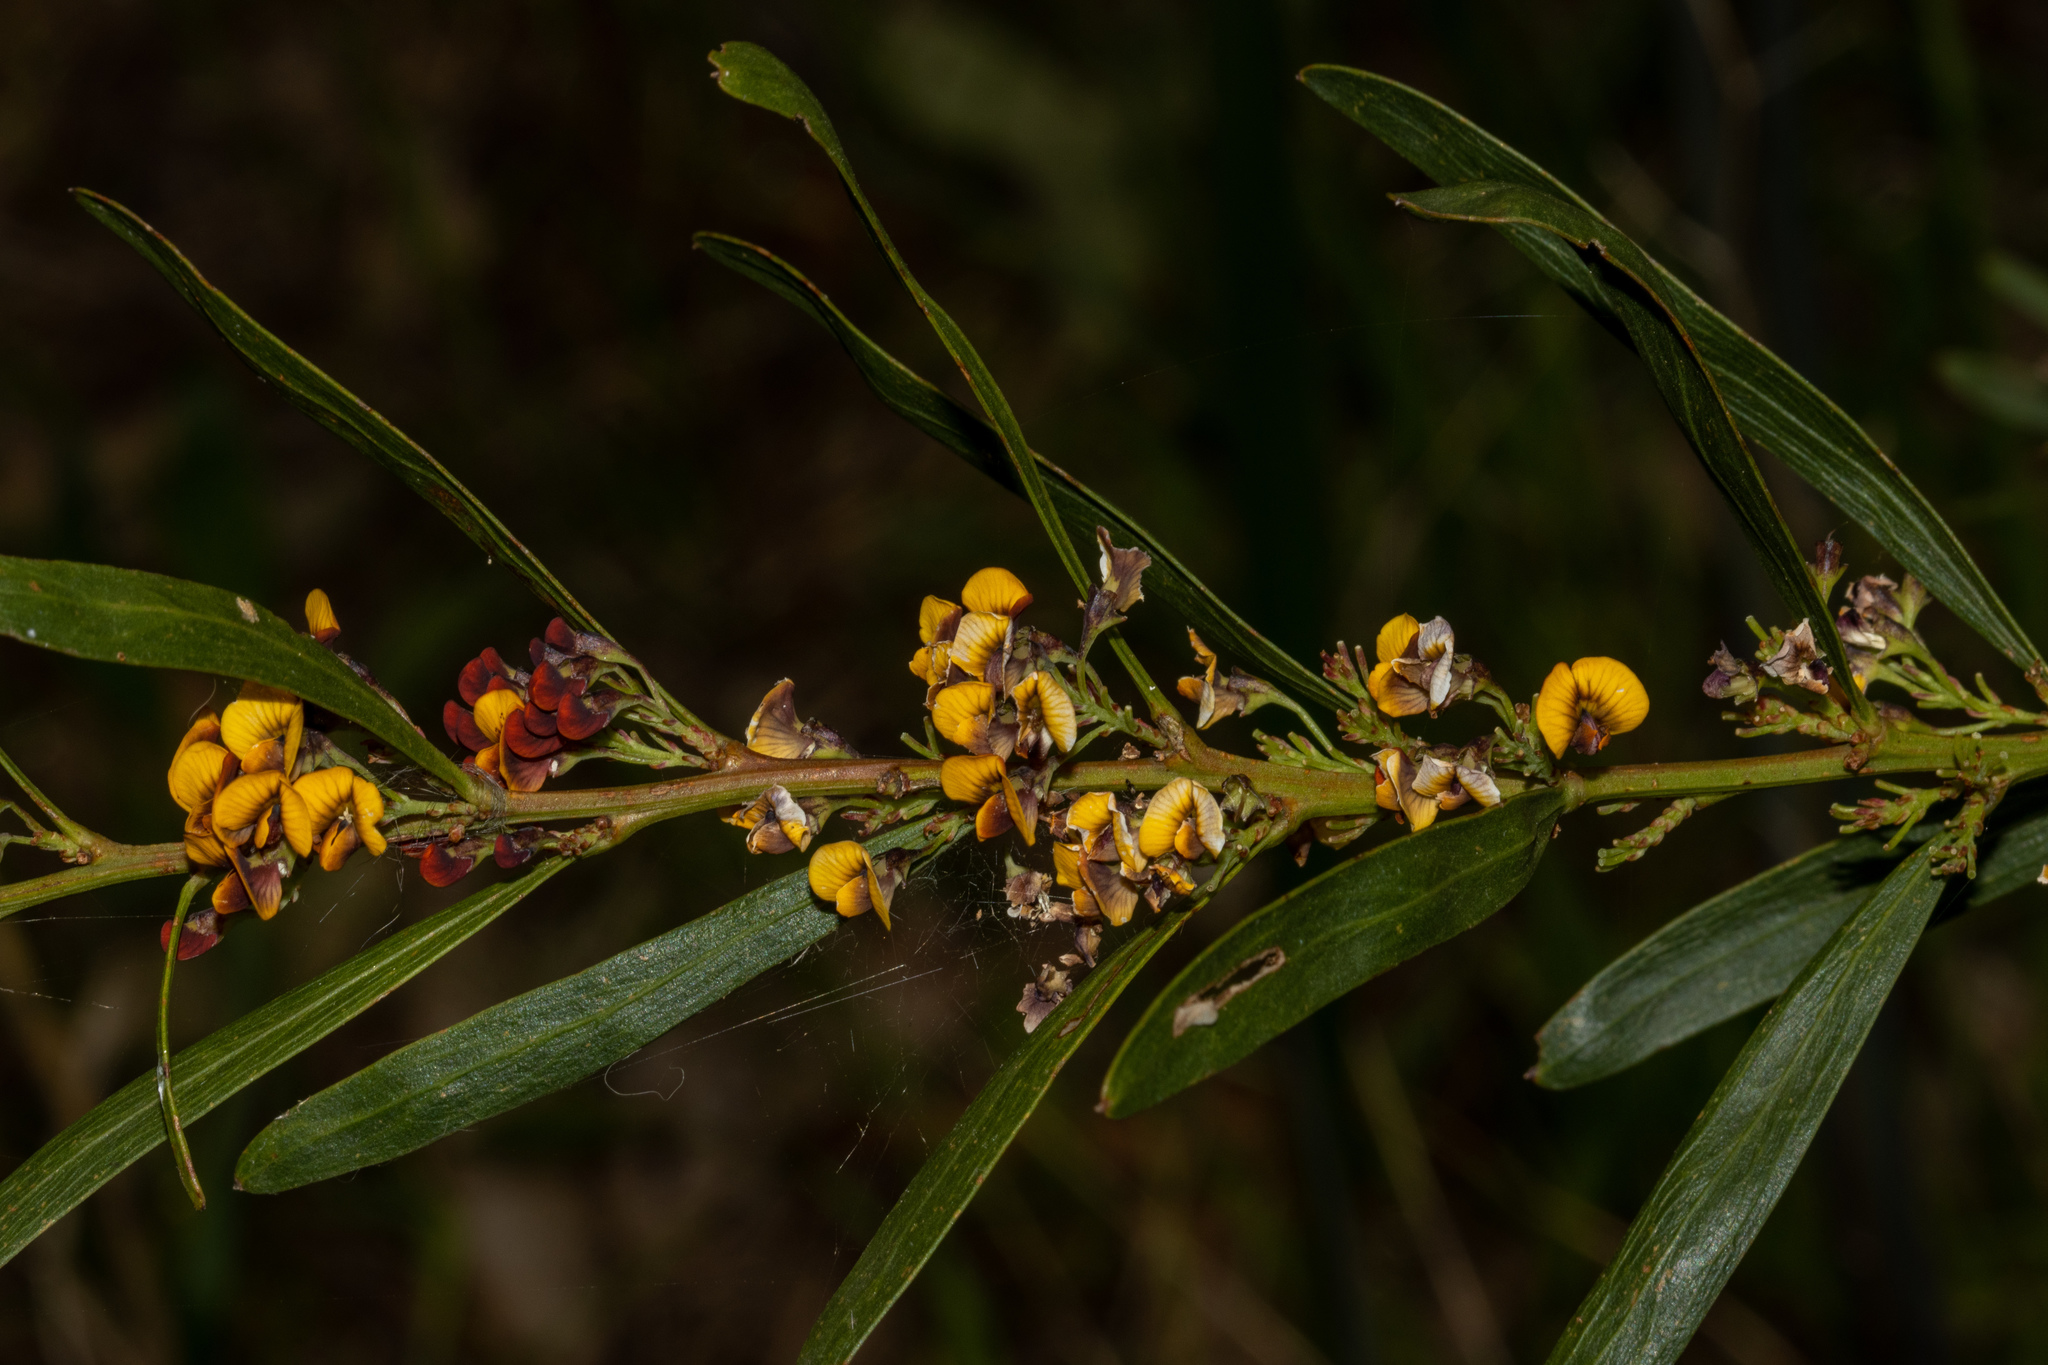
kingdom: Plantae
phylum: Tracheophyta
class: Magnoliopsida
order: Fabales
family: Fabaceae
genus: Daviesia
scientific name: Daviesia leptophylla
